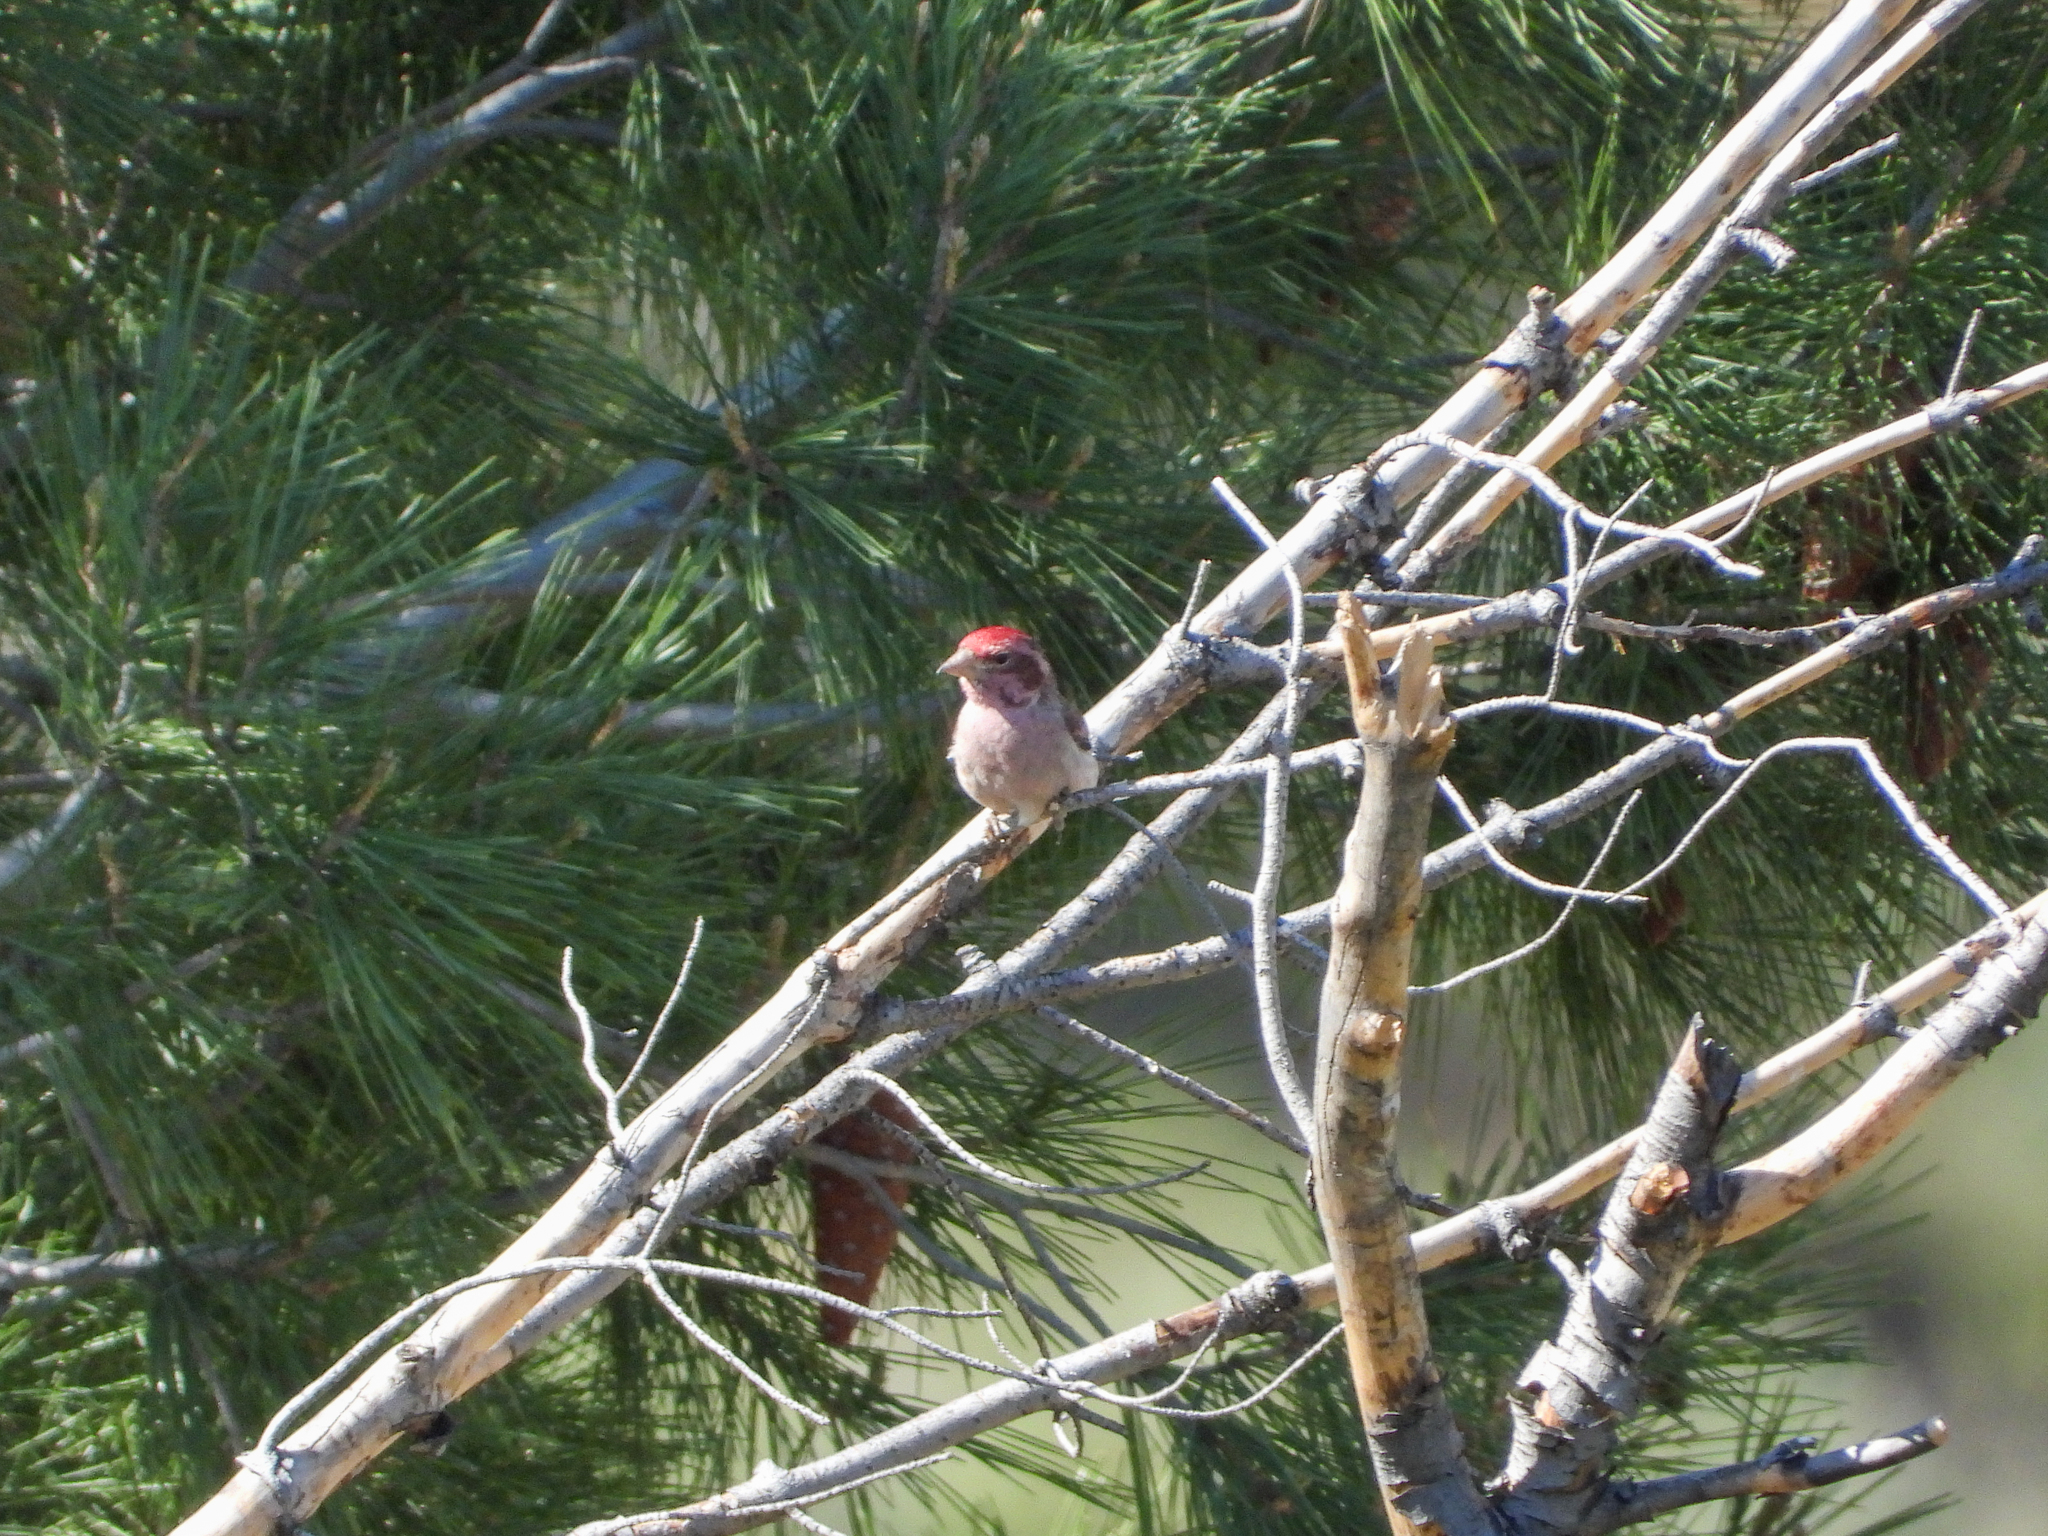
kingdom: Animalia
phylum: Chordata
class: Aves
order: Passeriformes
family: Fringillidae
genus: Haemorhous
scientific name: Haemorhous cassinii
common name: Cassin's finch
